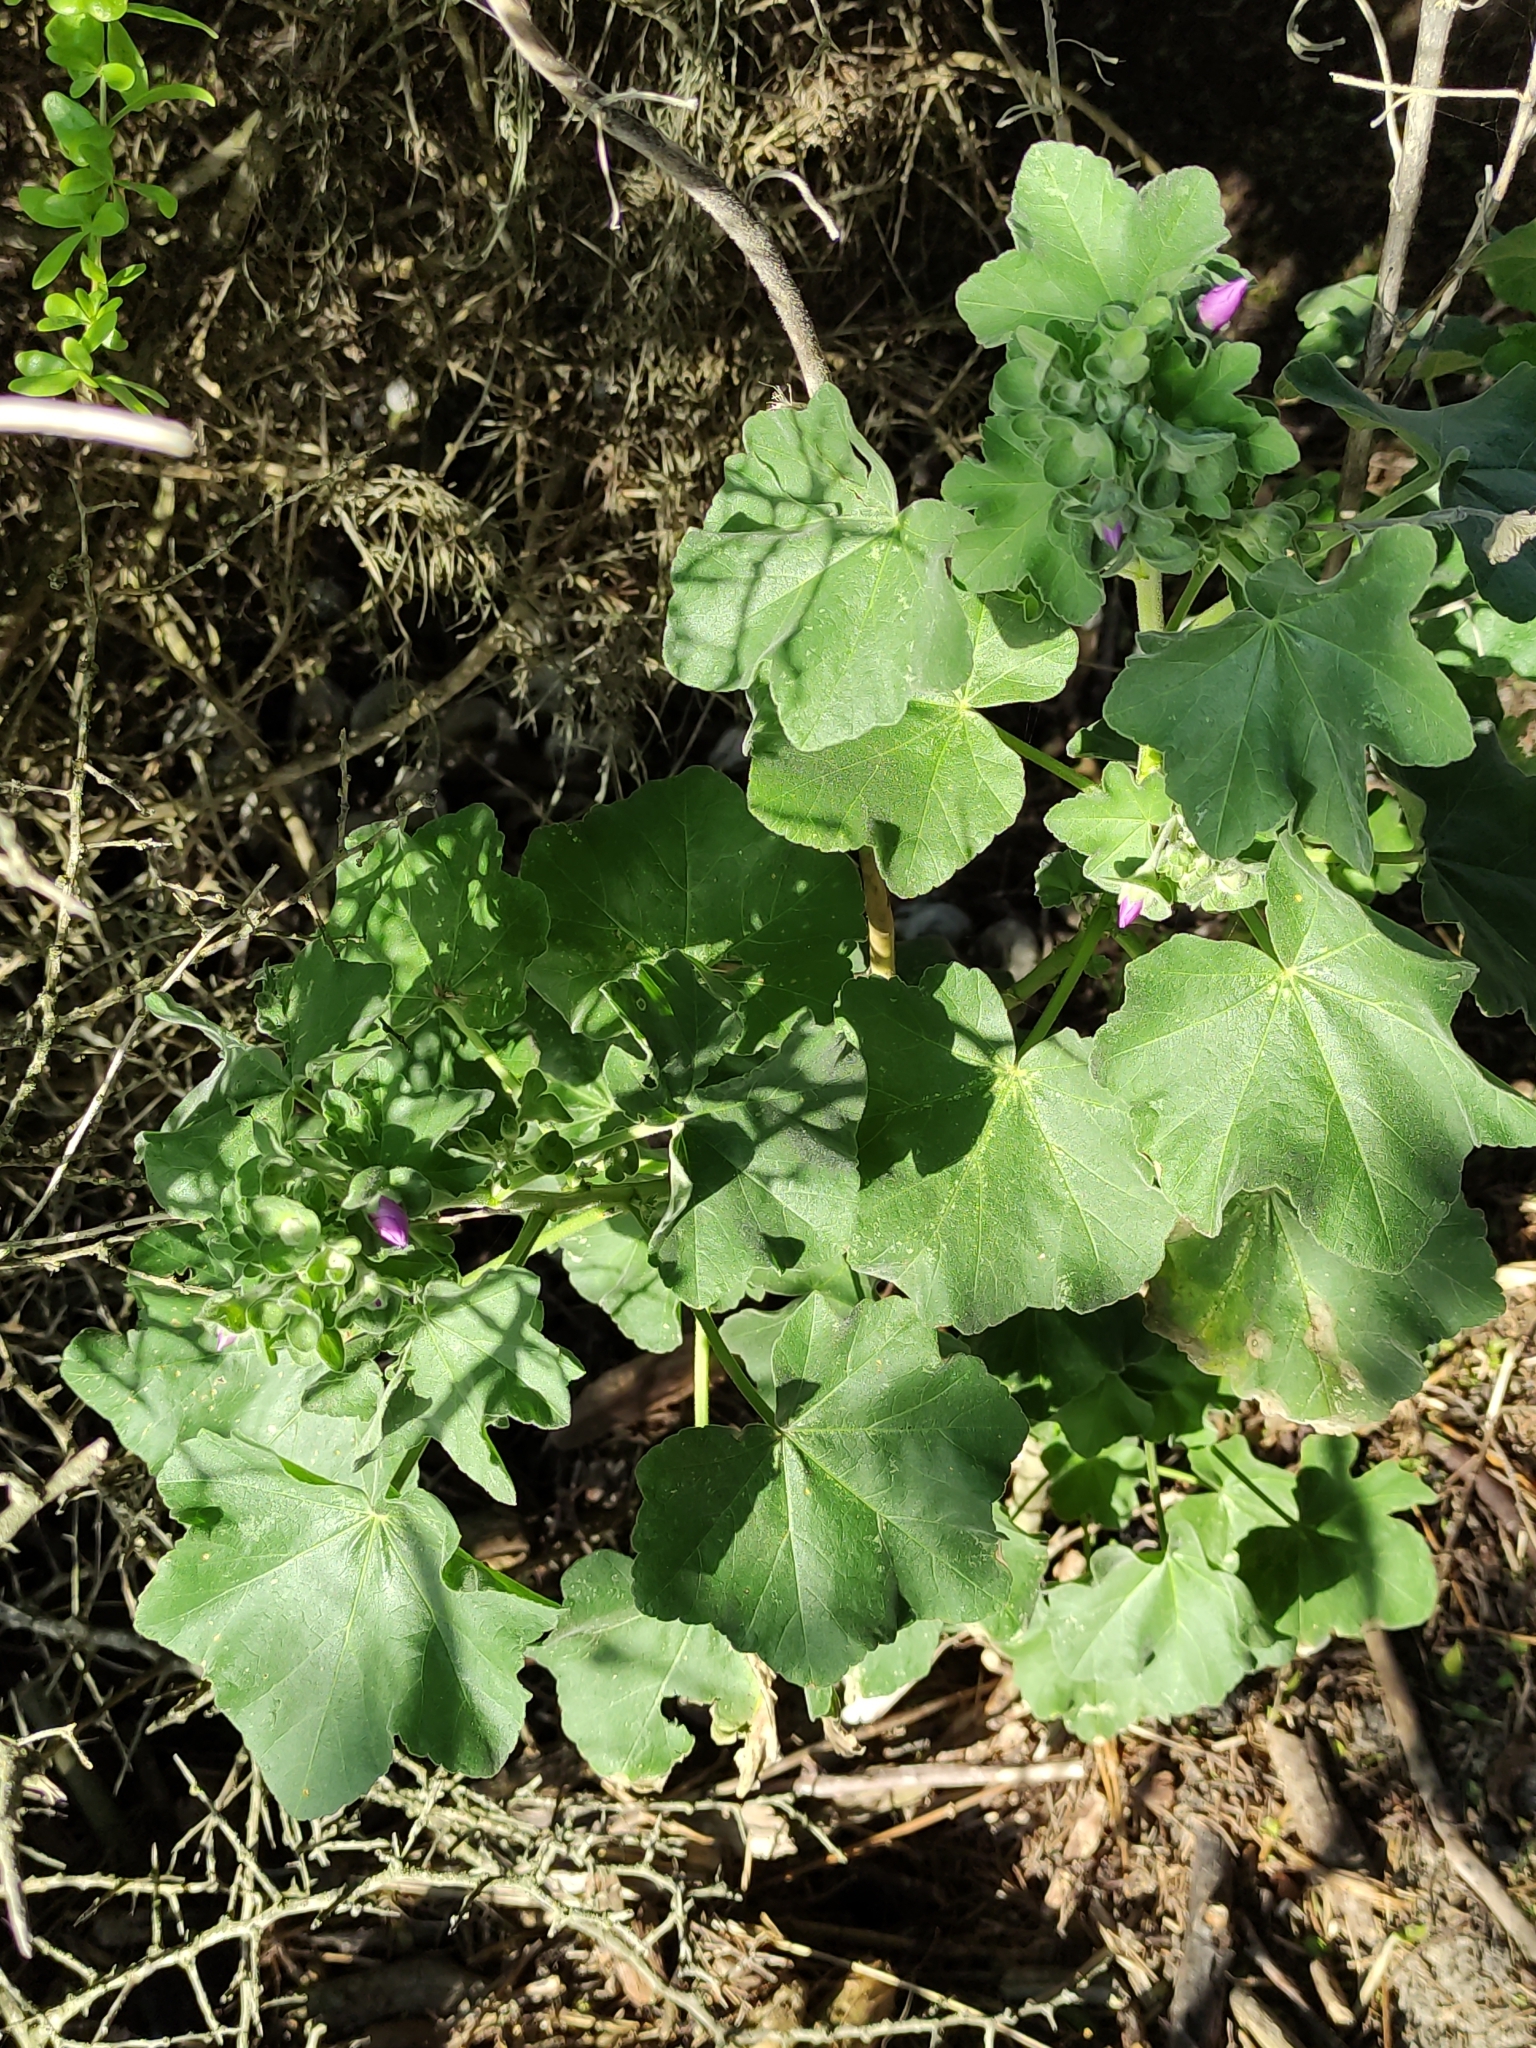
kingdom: Plantae
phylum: Tracheophyta
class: Magnoliopsida
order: Malvales
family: Malvaceae
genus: Malva
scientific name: Malva arborea
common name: Tree mallow
